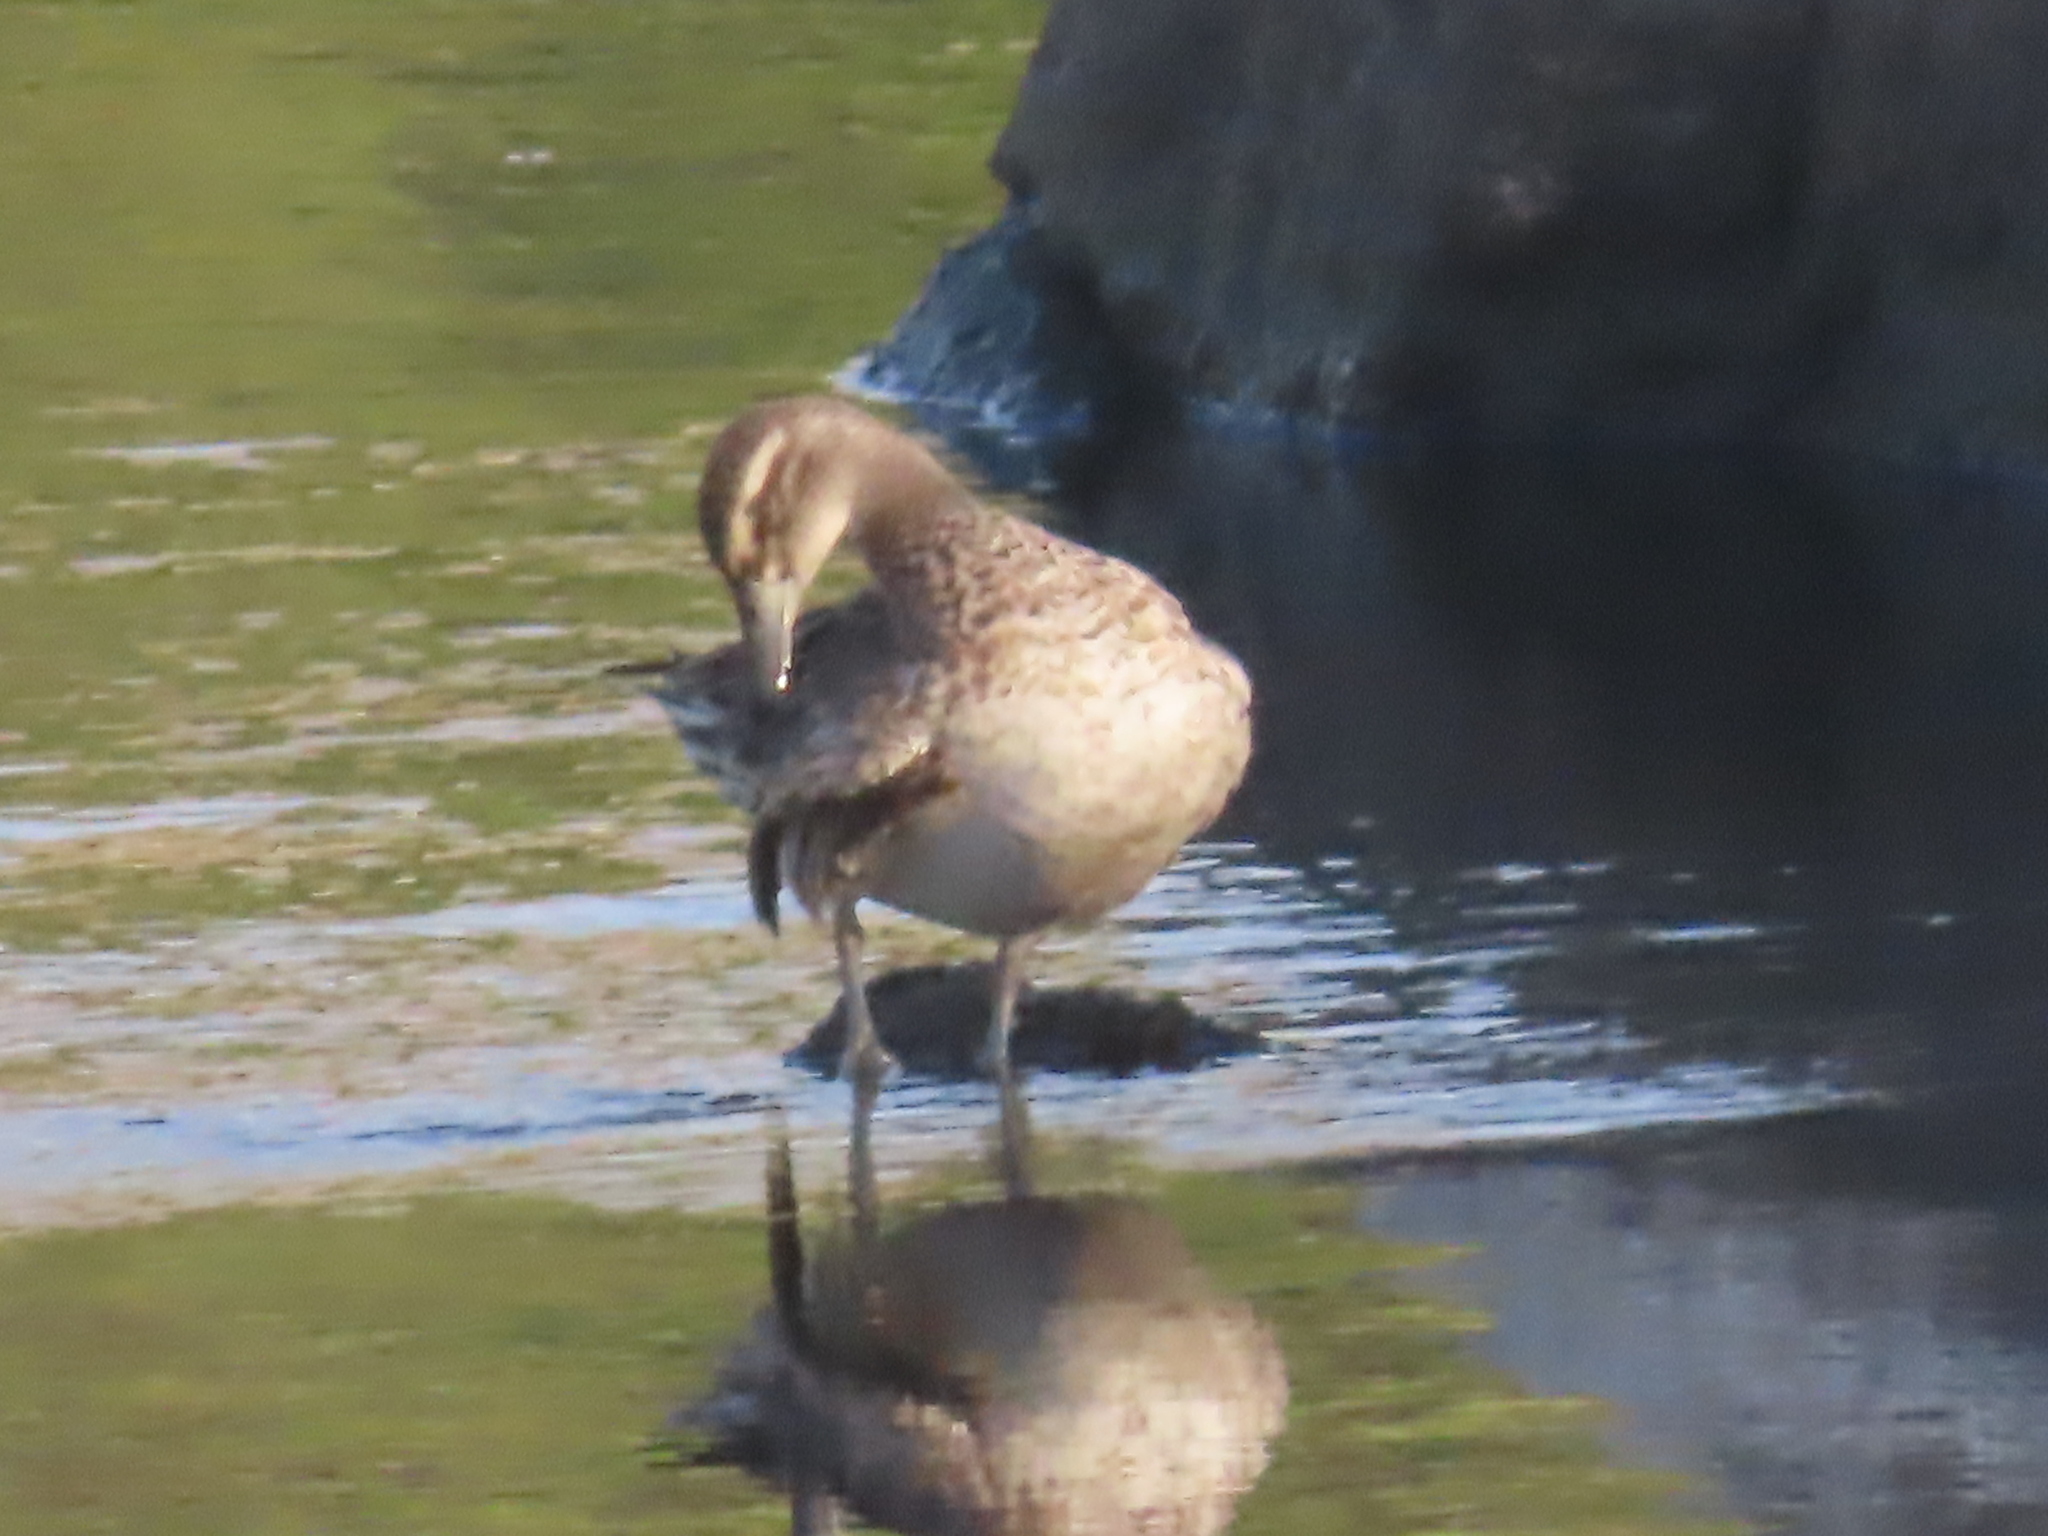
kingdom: Animalia
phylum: Chordata
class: Aves
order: Anseriformes
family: Anatidae
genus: Spatula
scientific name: Spatula querquedula
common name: Garganey
